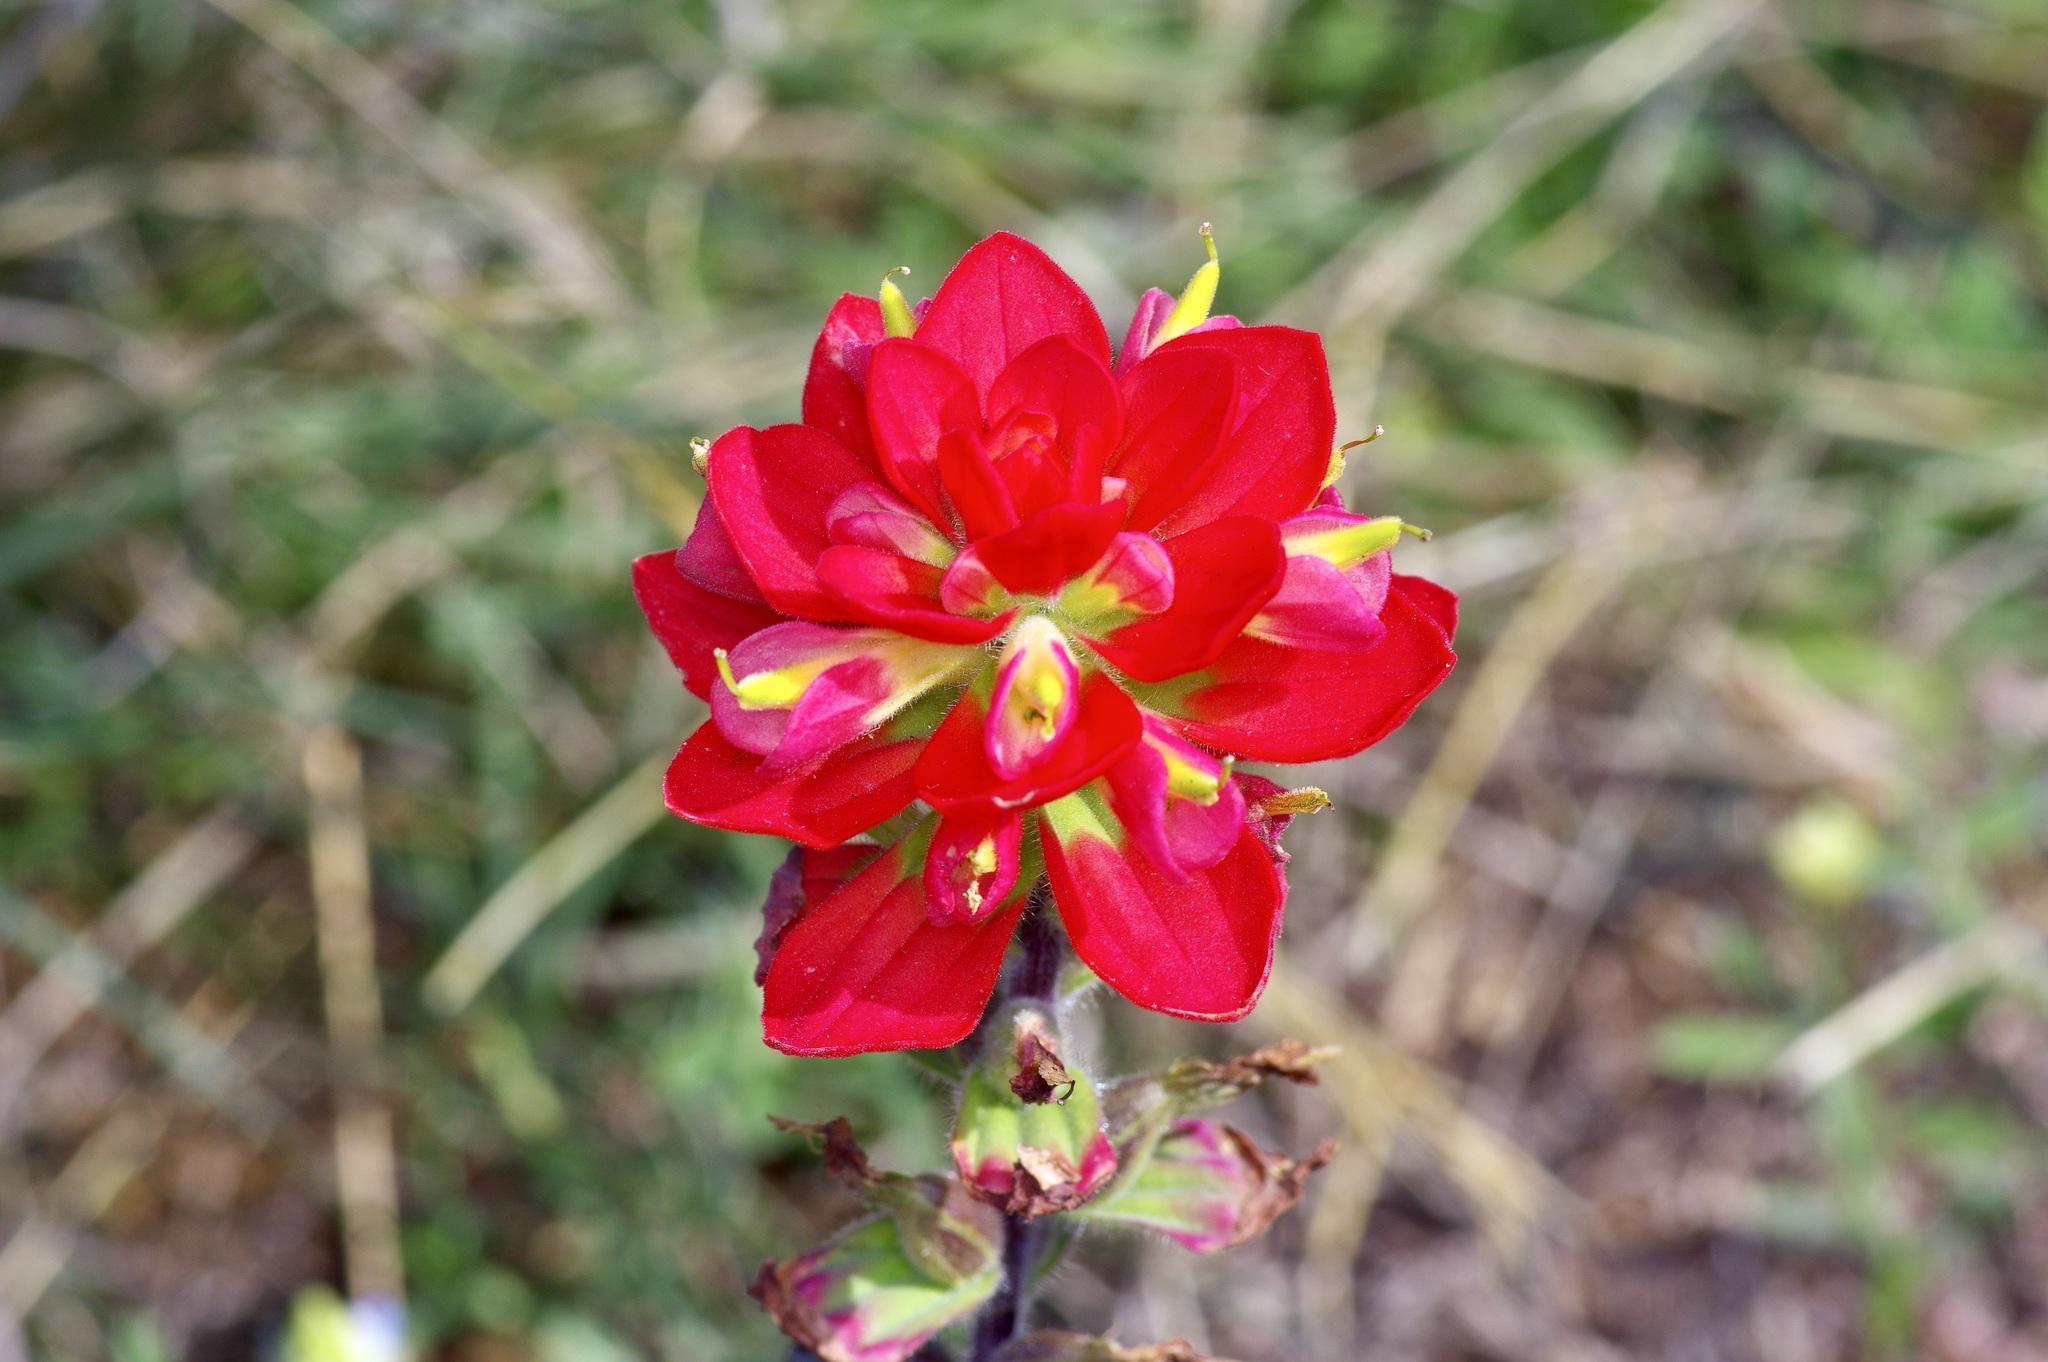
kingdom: Plantae
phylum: Tracheophyta
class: Magnoliopsida
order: Lamiales
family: Orobanchaceae
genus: Castilleja
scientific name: Castilleja indivisa
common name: Texas paintbrush
